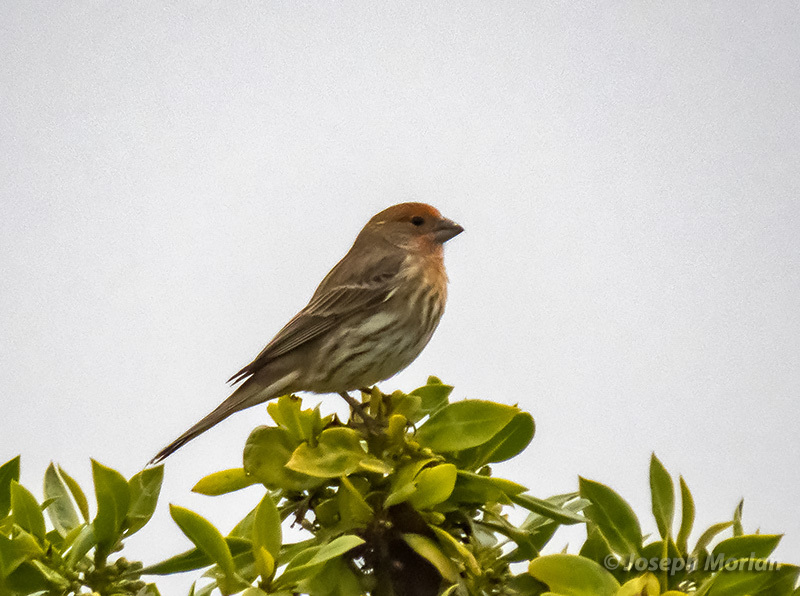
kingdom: Animalia
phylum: Chordata
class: Aves
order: Passeriformes
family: Fringillidae
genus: Haemorhous
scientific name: Haemorhous mexicanus
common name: House finch
